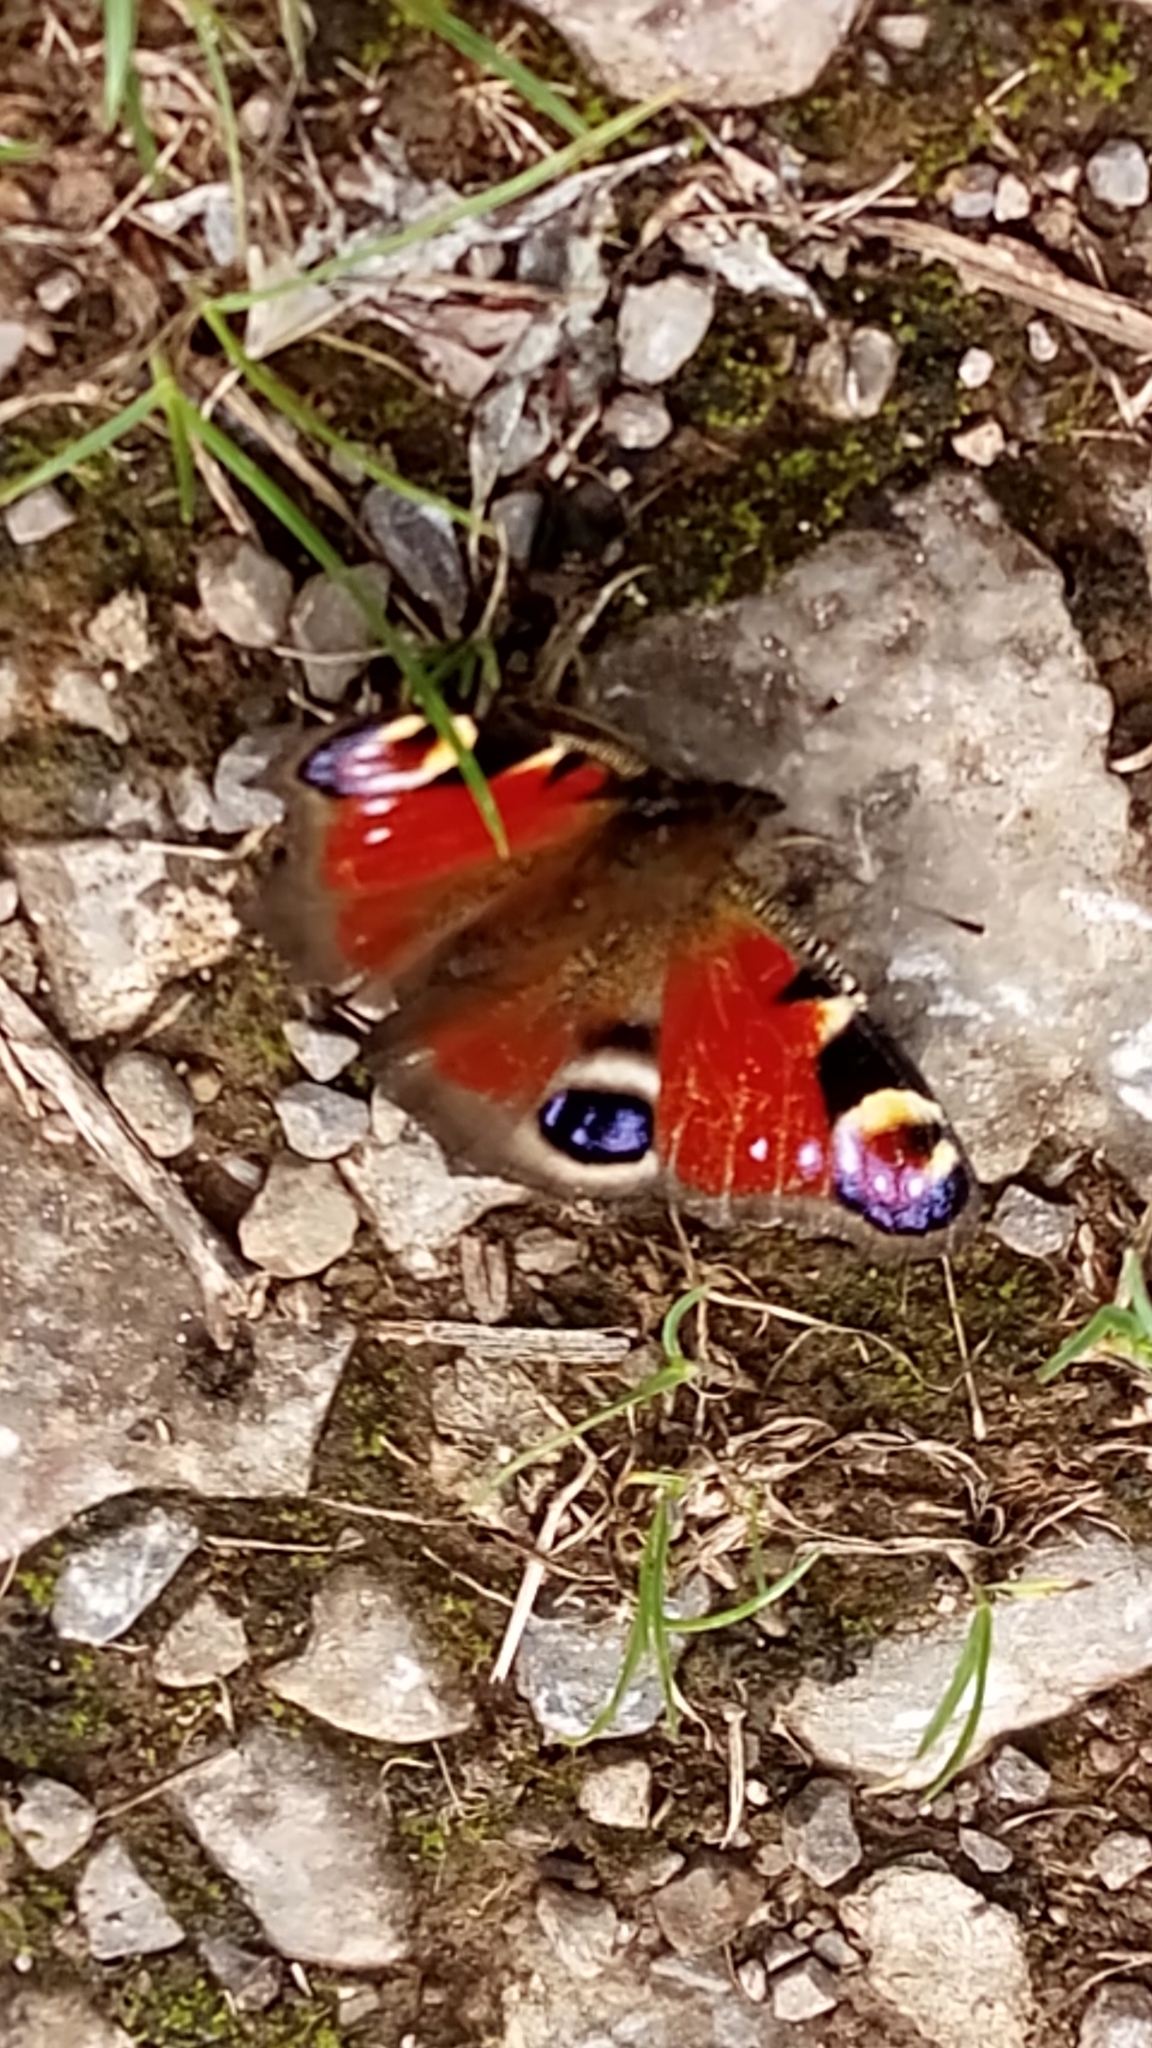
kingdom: Animalia
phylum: Arthropoda
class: Insecta
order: Lepidoptera
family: Nymphalidae
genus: Aglais
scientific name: Aglais io
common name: Peacock
